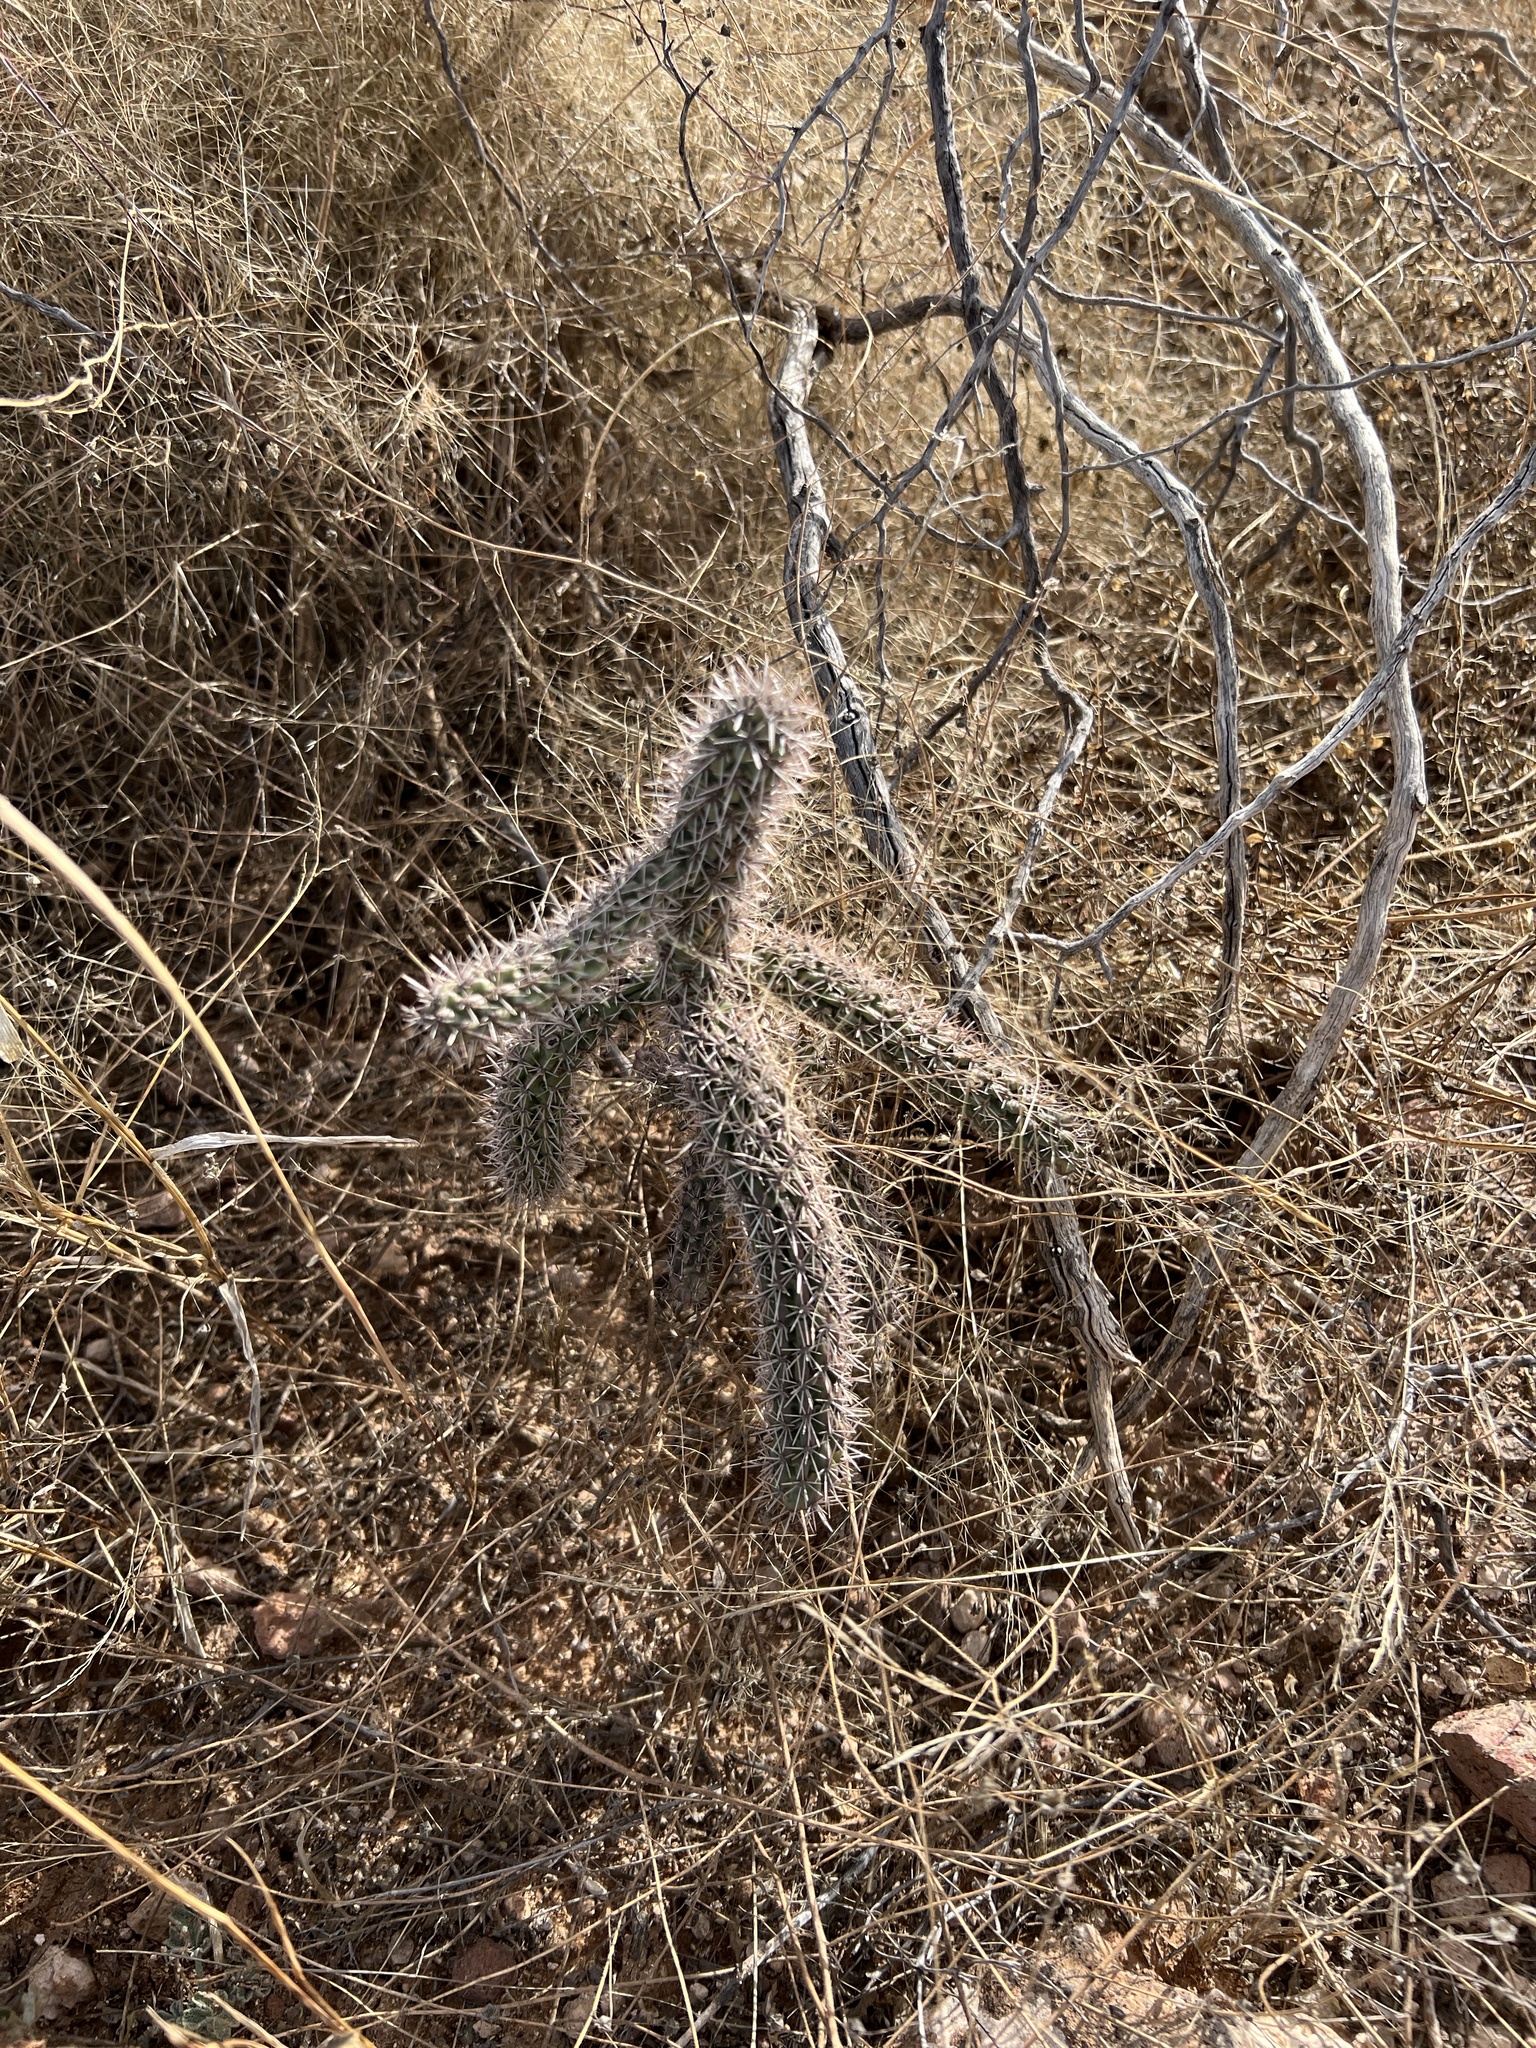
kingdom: Plantae
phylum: Tracheophyta
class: Magnoliopsida
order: Caryophyllales
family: Cactaceae
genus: Cylindropuntia
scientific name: Cylindropuntia imbricata
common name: Candelabrum cactus
